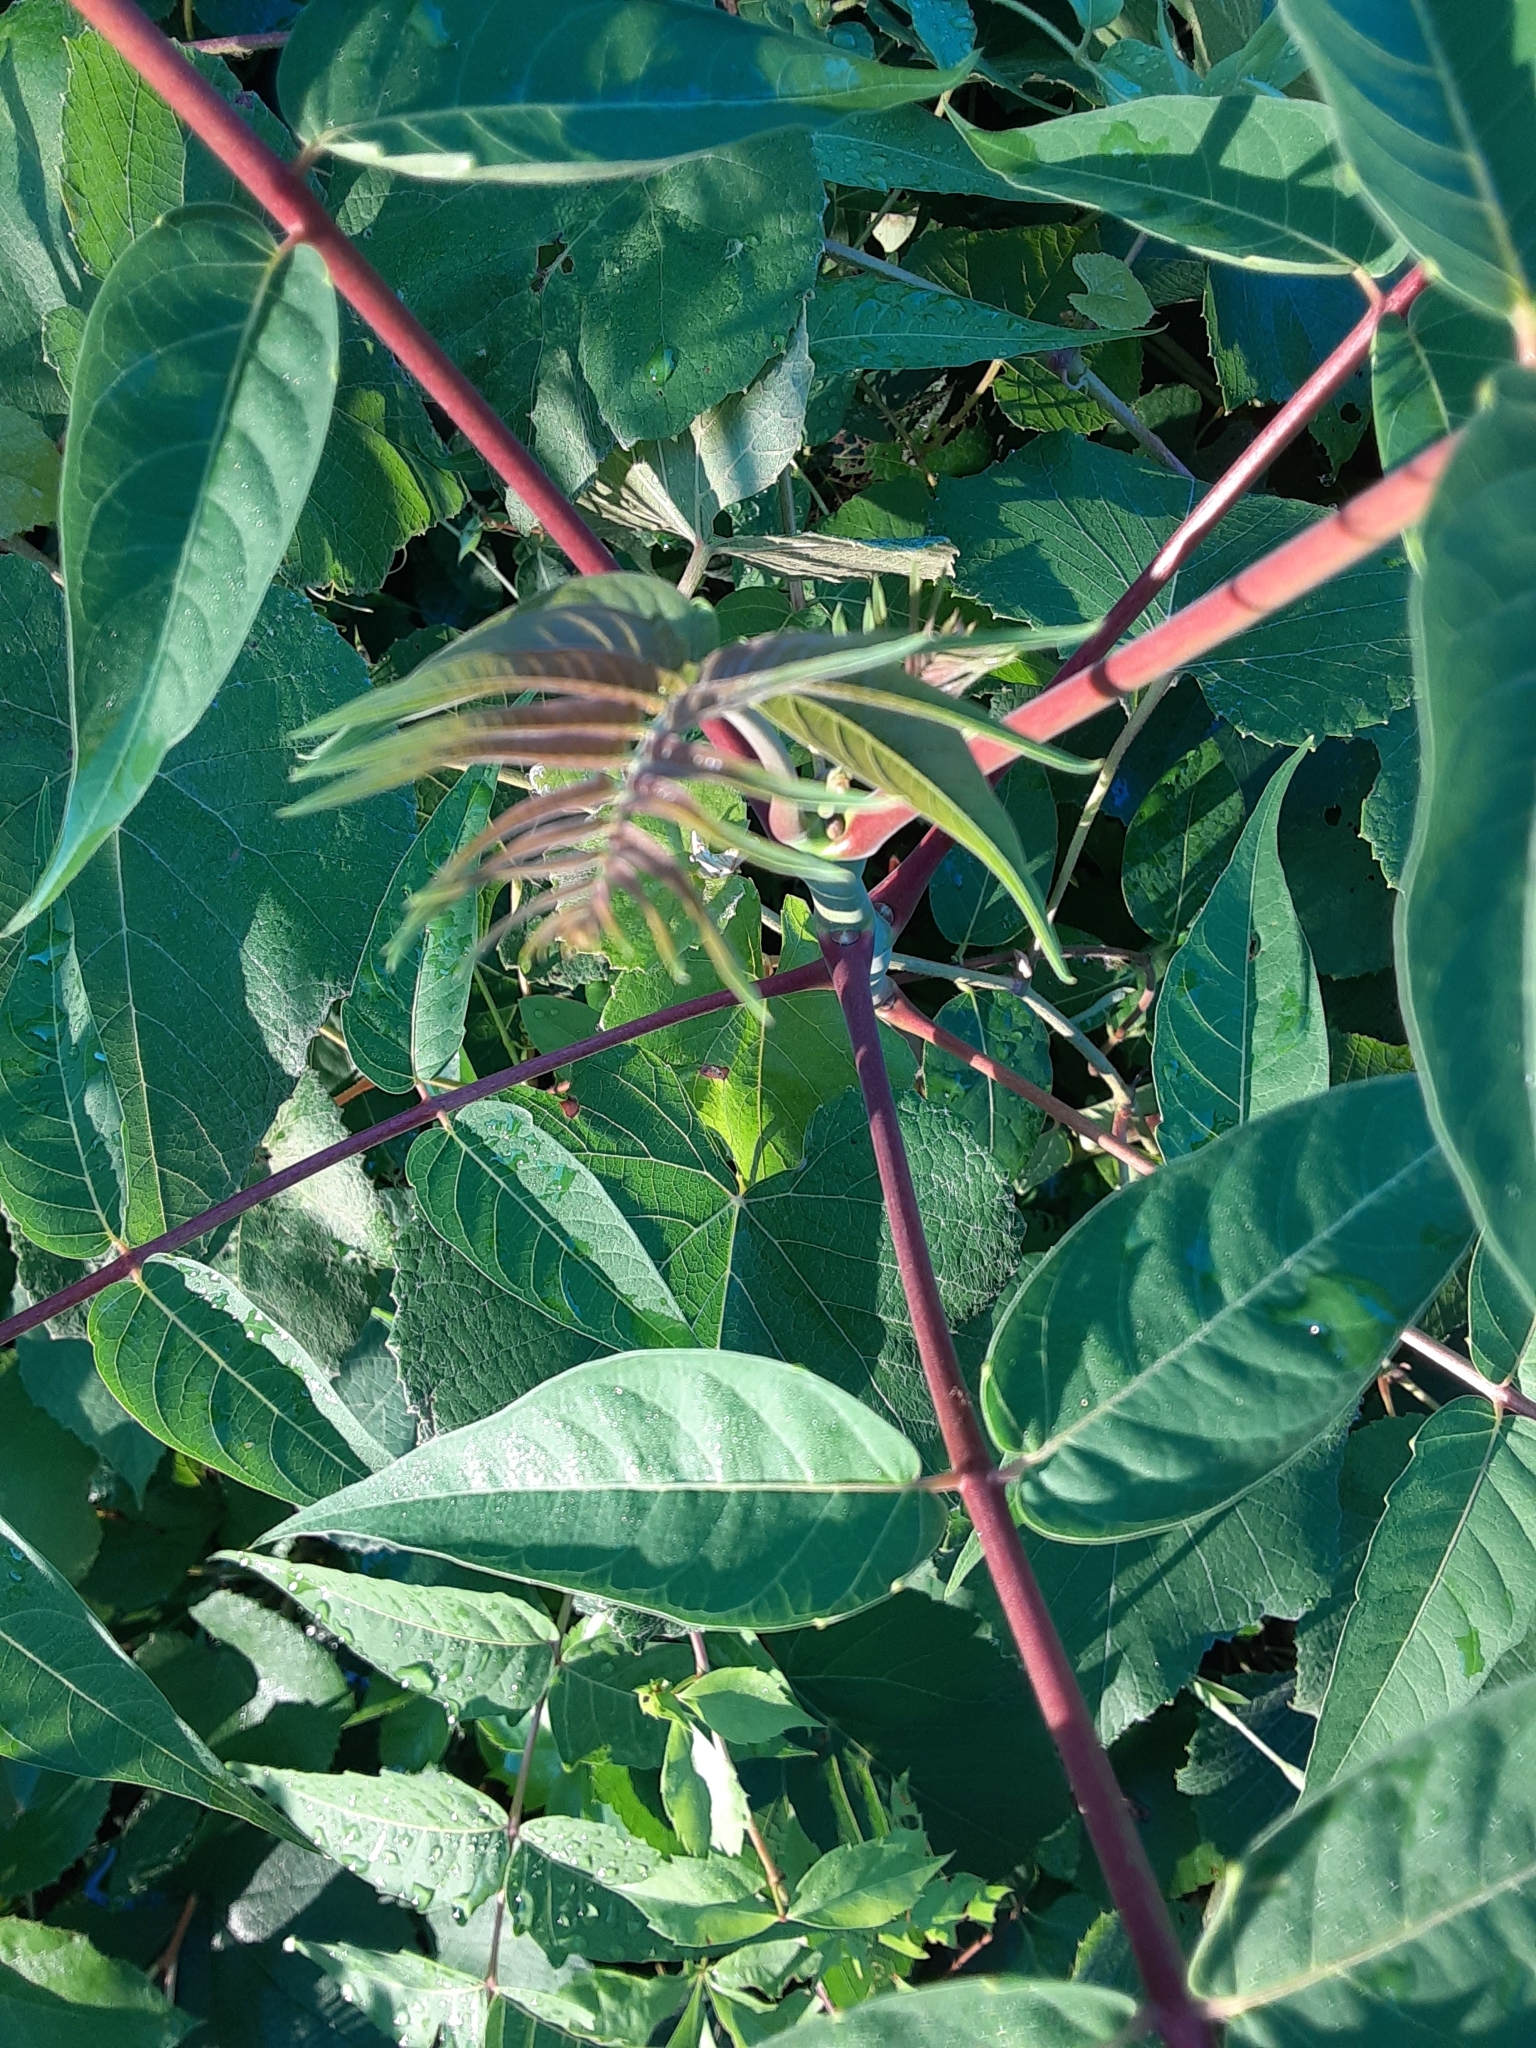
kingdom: Plantae
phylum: Tracheophyta
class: Magnoliopsida
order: Sapindales
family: Simaroubaceae
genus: Ailanthus
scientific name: Ailanthus altissima
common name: Tree-of-heaven
